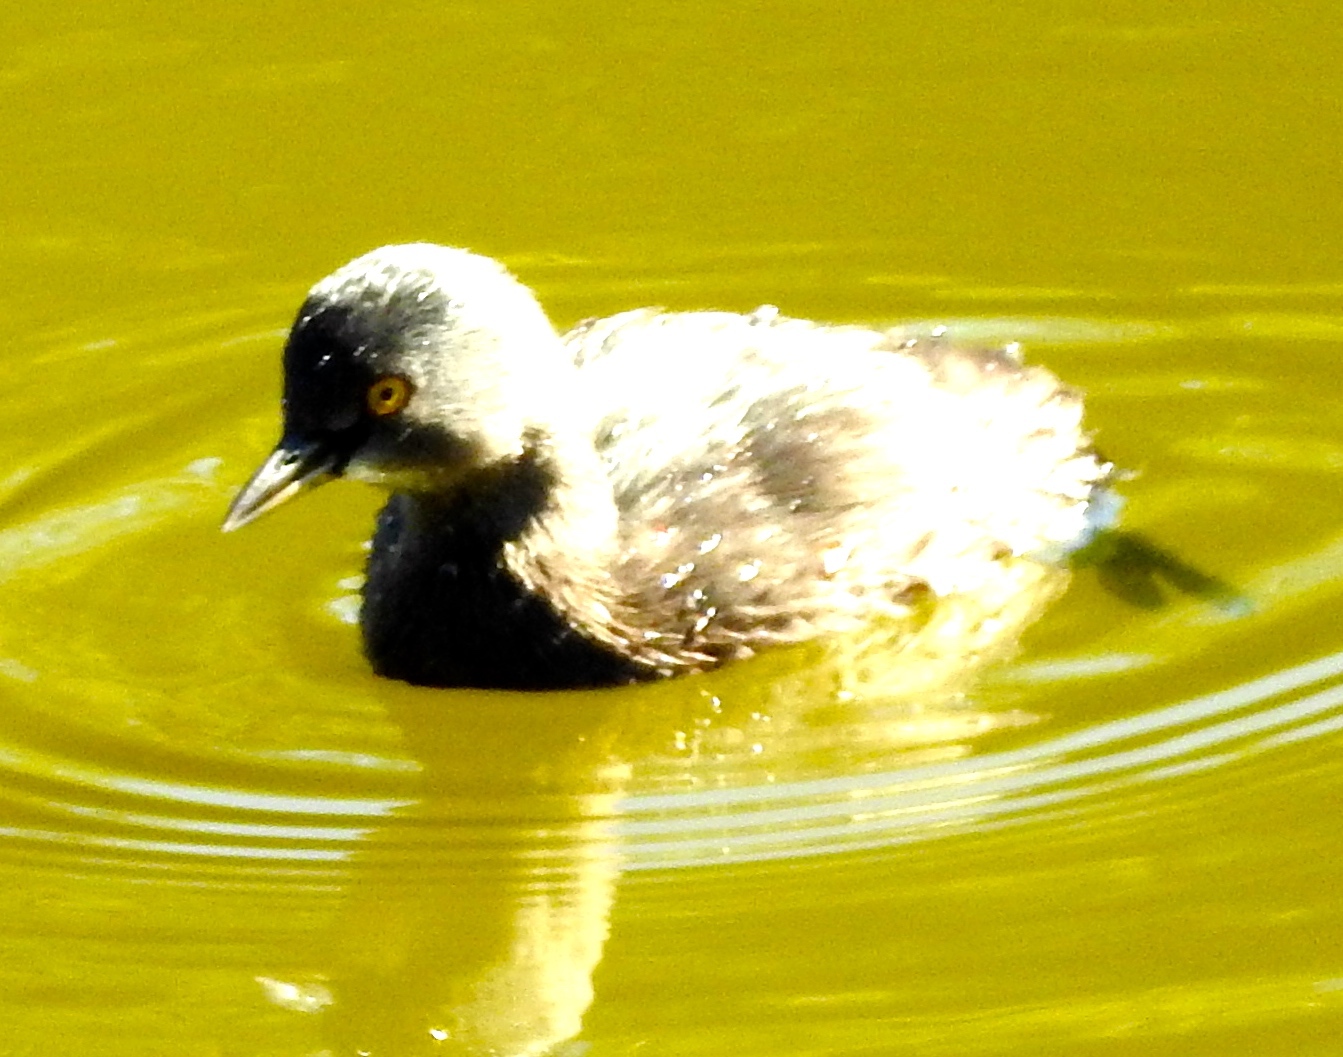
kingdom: Animalia
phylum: Chordata
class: Aves
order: Podicipediformes
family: Podicipedidae
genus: Tachybaptus
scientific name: Tachybaptus dominicus
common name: Least grebe
